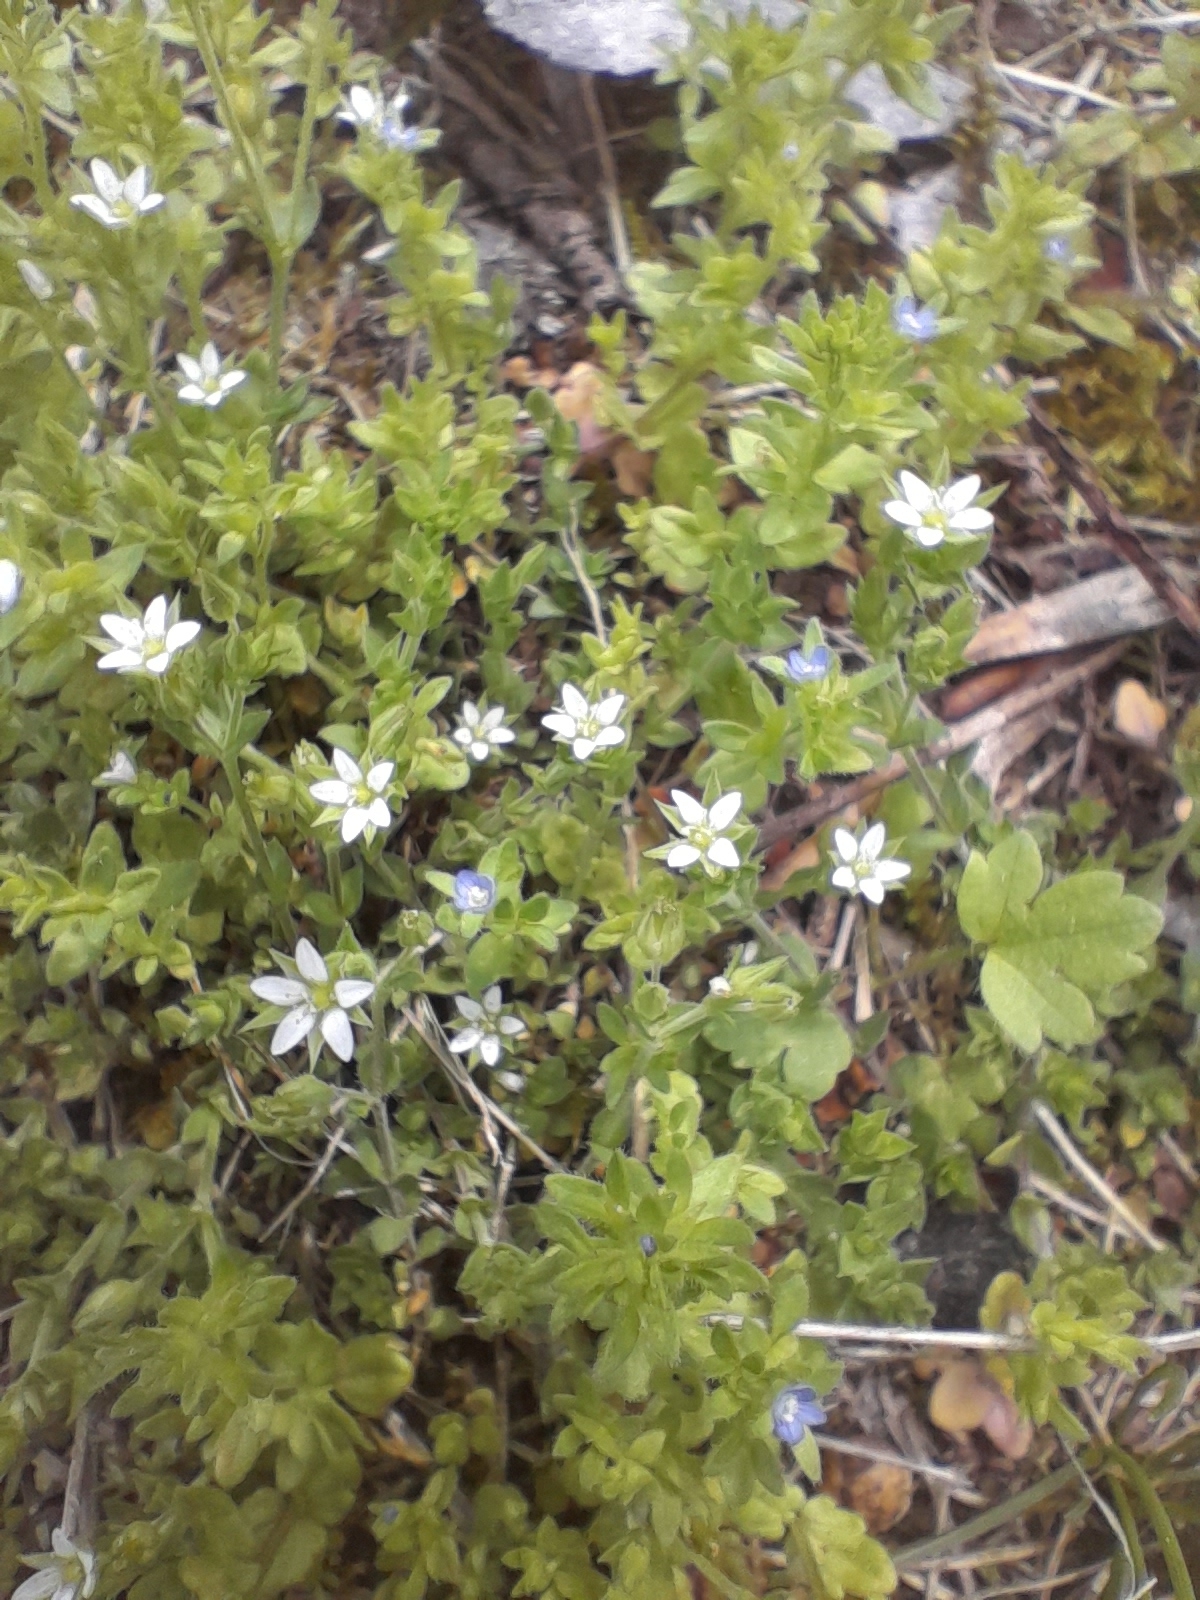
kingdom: Plantae
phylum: Tracheophyta
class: Magnoliopsida
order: Caryophyllales
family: Caryophyllaceae
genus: Arenaria
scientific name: Arenaria serpyllifolia
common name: Thyme-leaved sandwort
